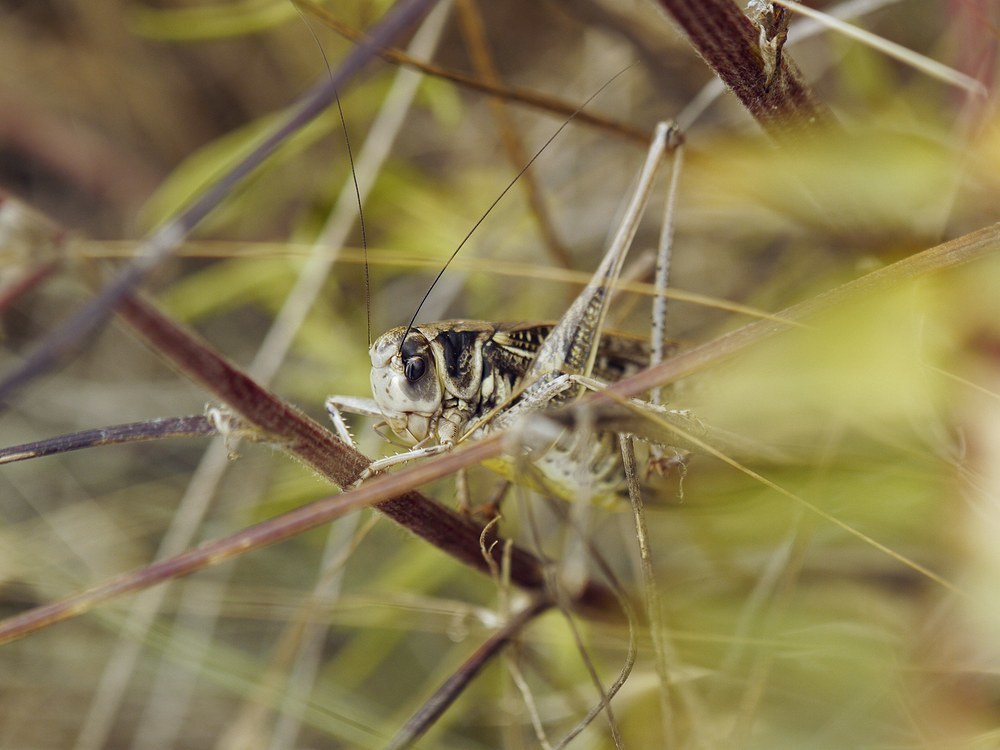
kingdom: Animalia
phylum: Arthropoda
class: Insecta
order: Orthoptera
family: Tettigoniidae
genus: Decticus
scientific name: Decticus verrucivorus
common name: Wart-biter
